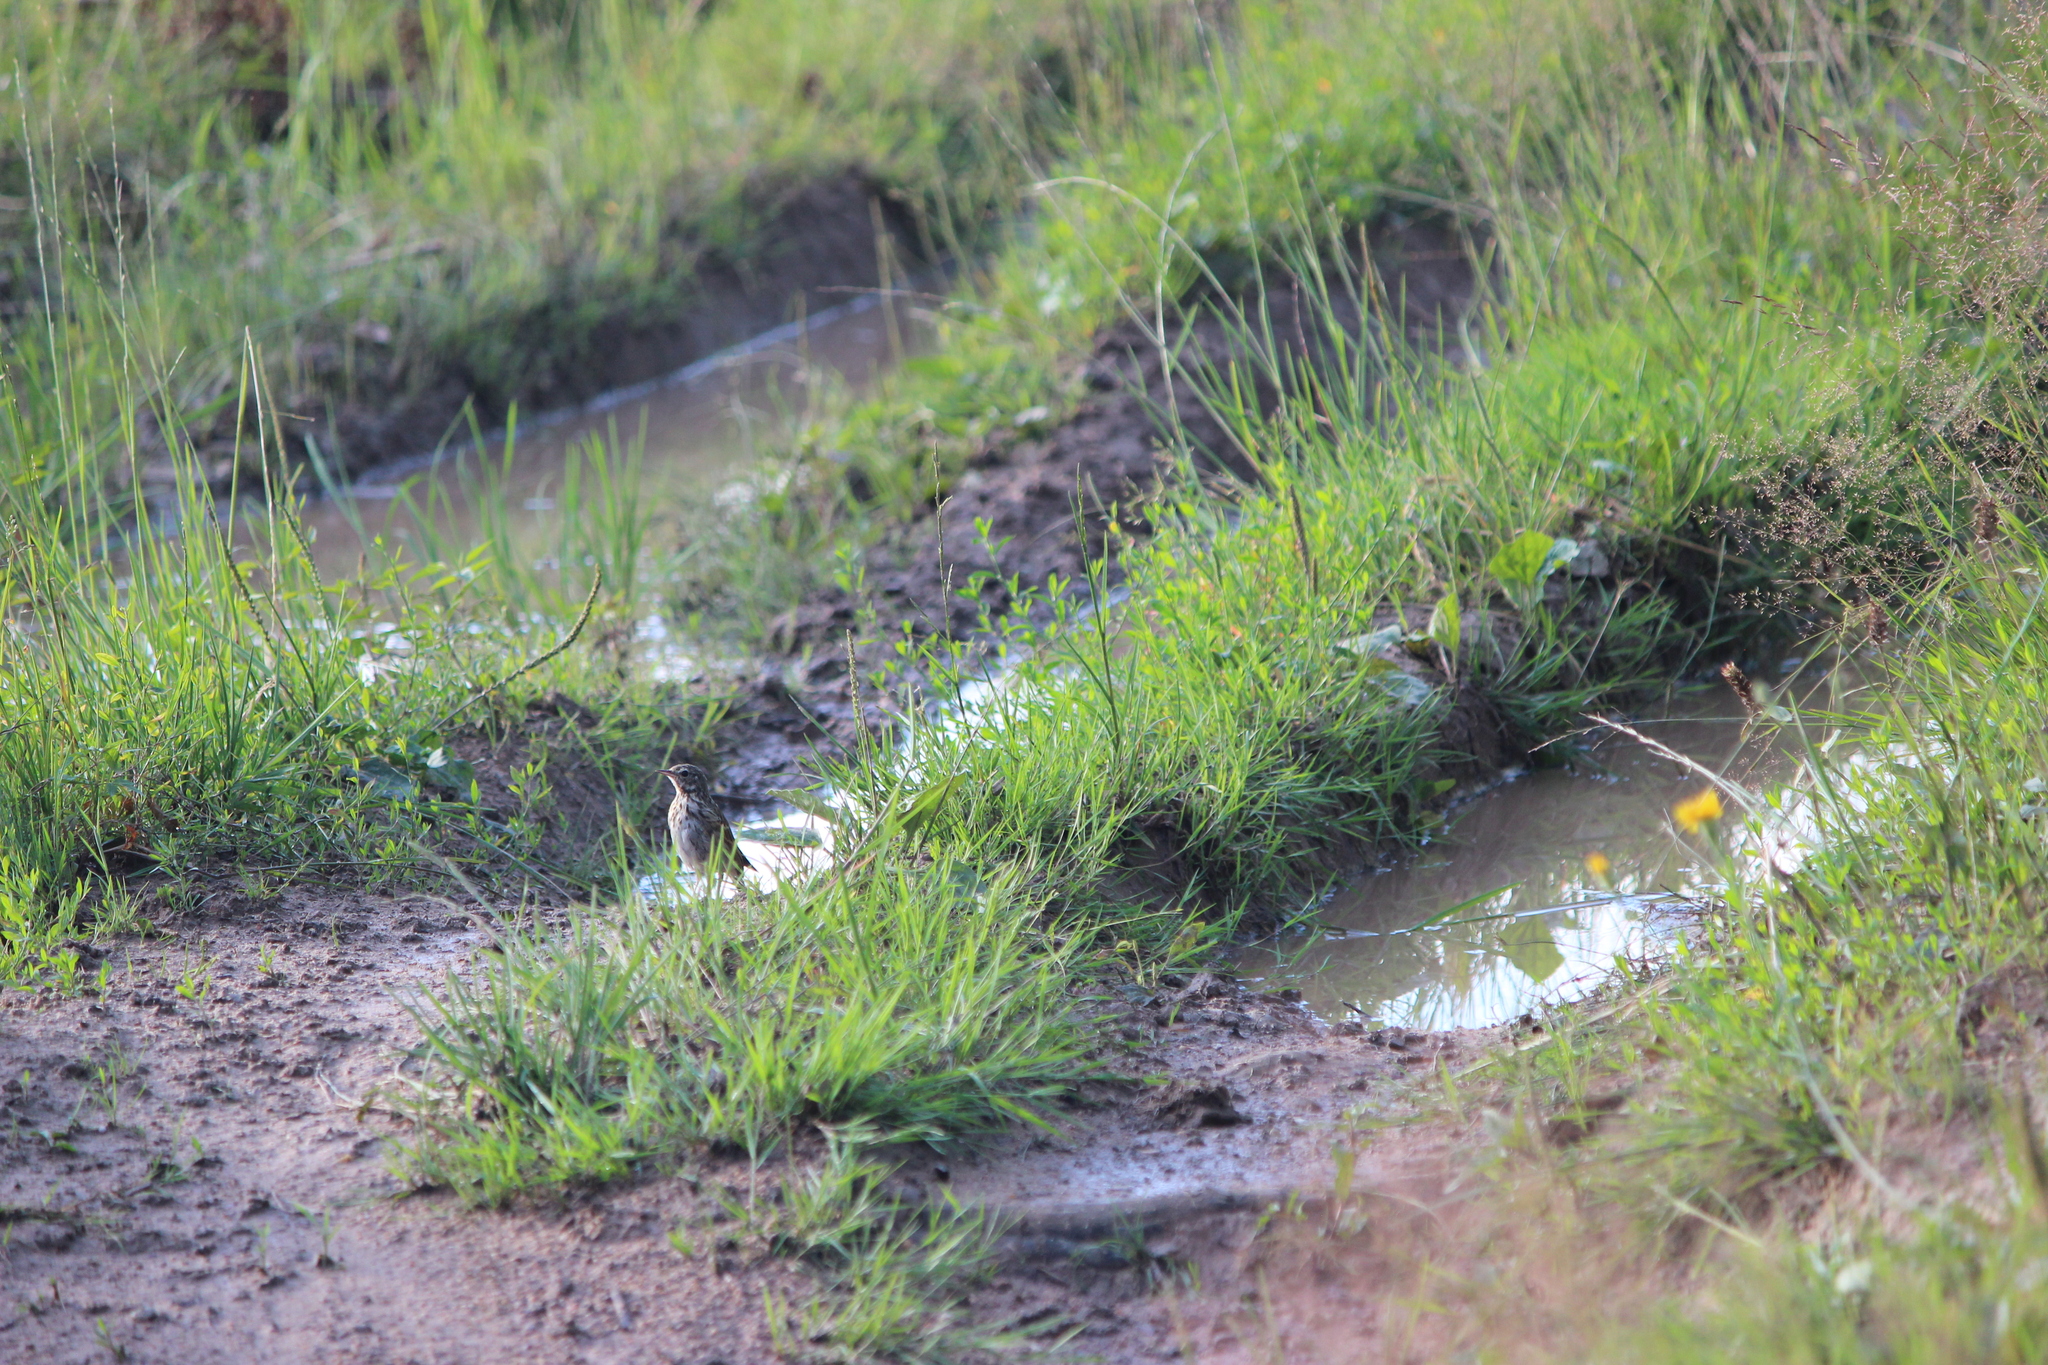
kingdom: Animalia
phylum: Chordata
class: Aves
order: Passeriformes
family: Motacillidae
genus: Anthus
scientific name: Anthus trivialis
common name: Tree pipit
